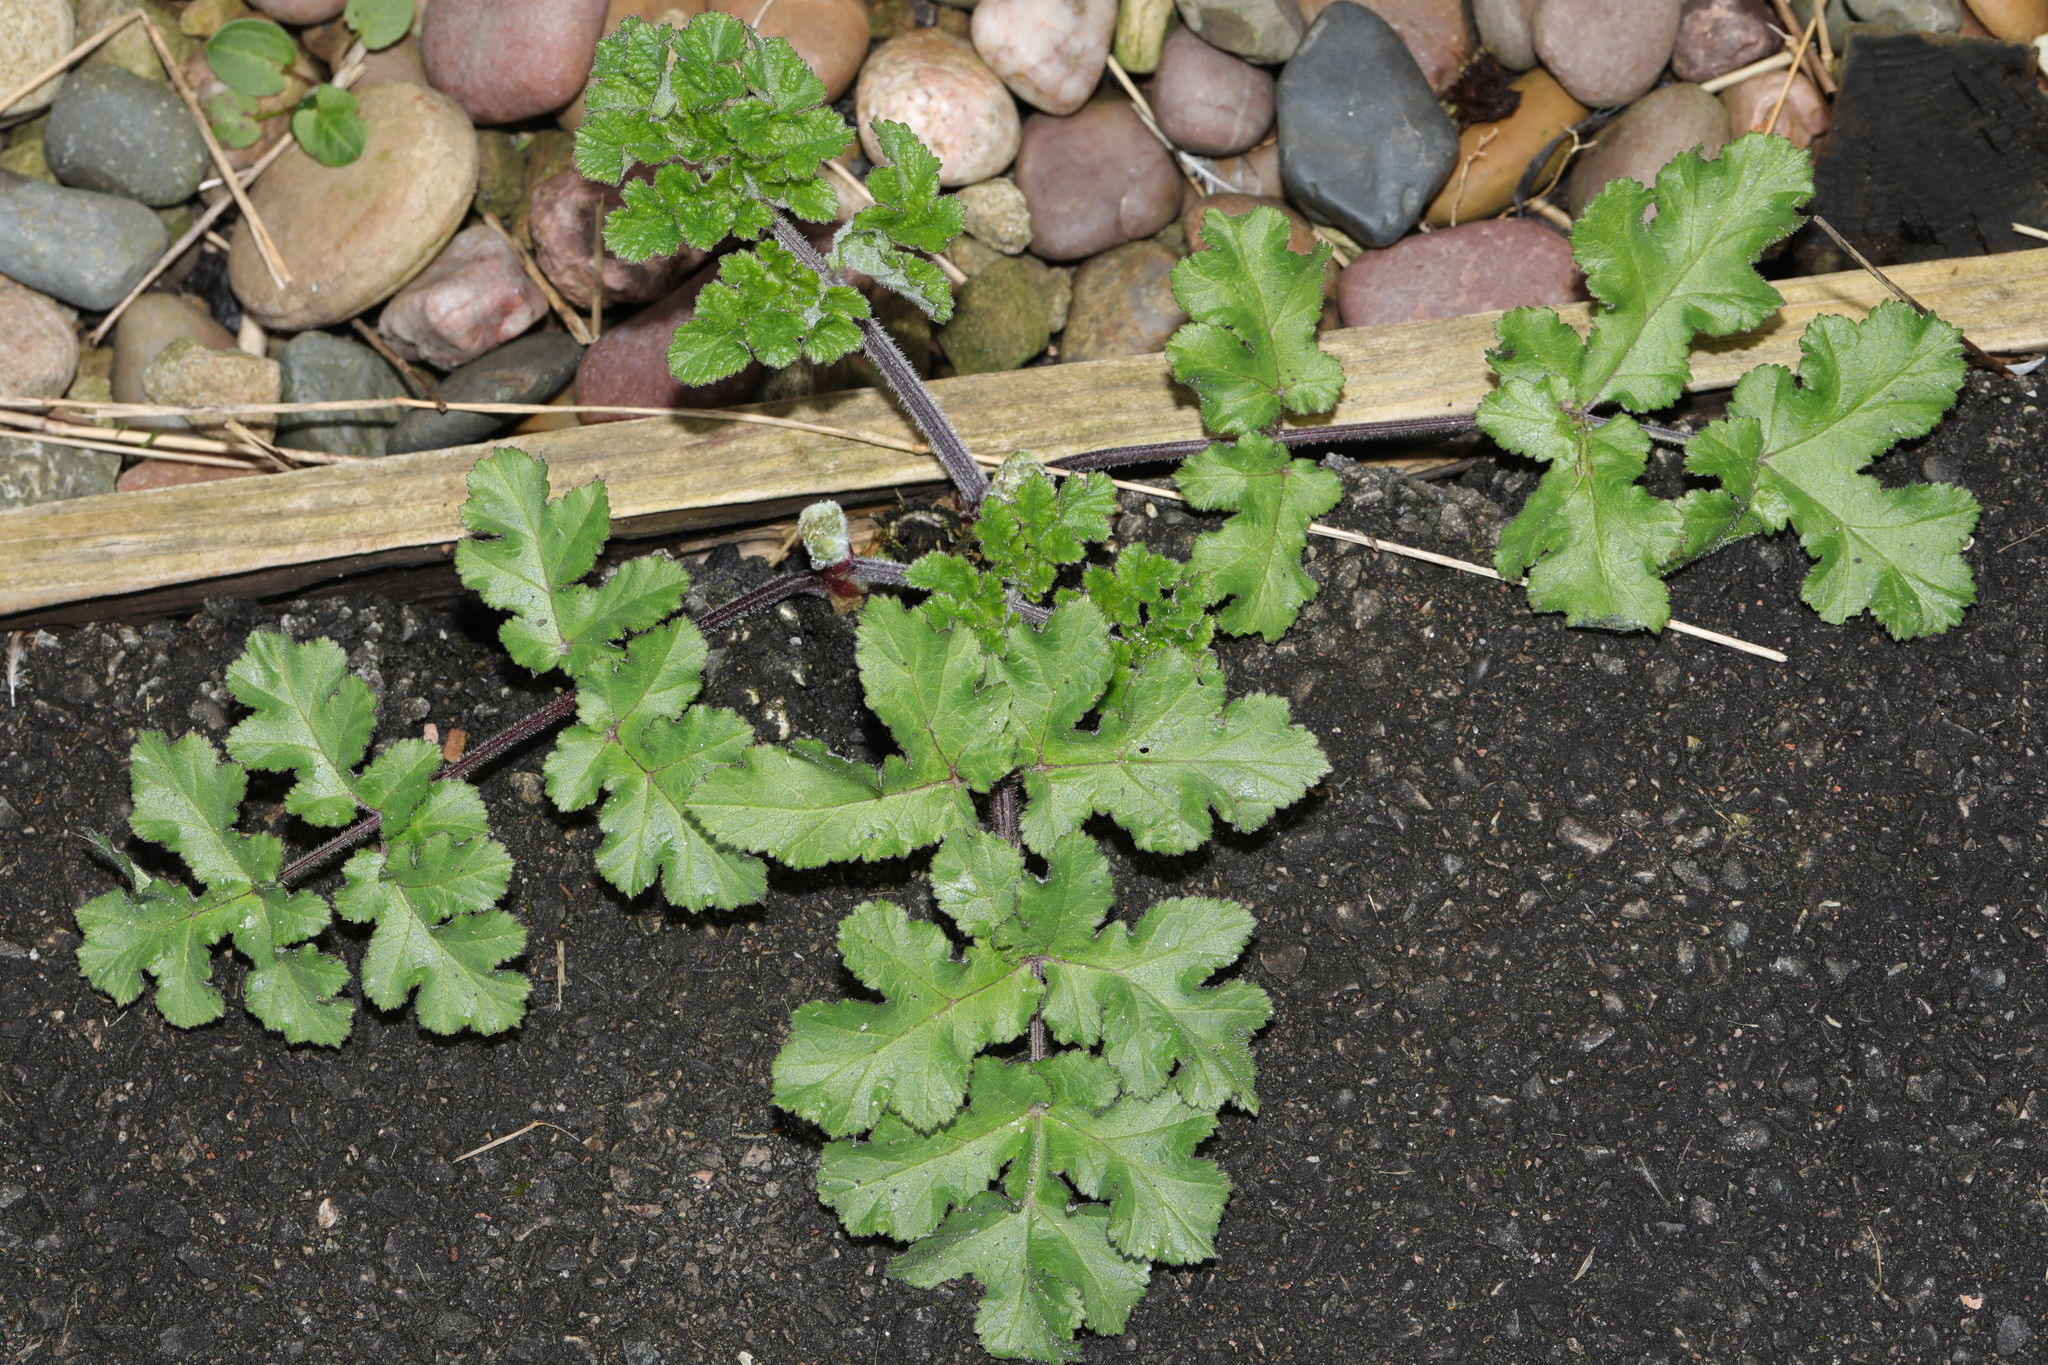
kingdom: Plantae
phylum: Tracheophyta
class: Magnoliopsida
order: Apiales
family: Apiaceae
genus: Heracleum
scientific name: Heracleum sphondylium
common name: Hogweed
